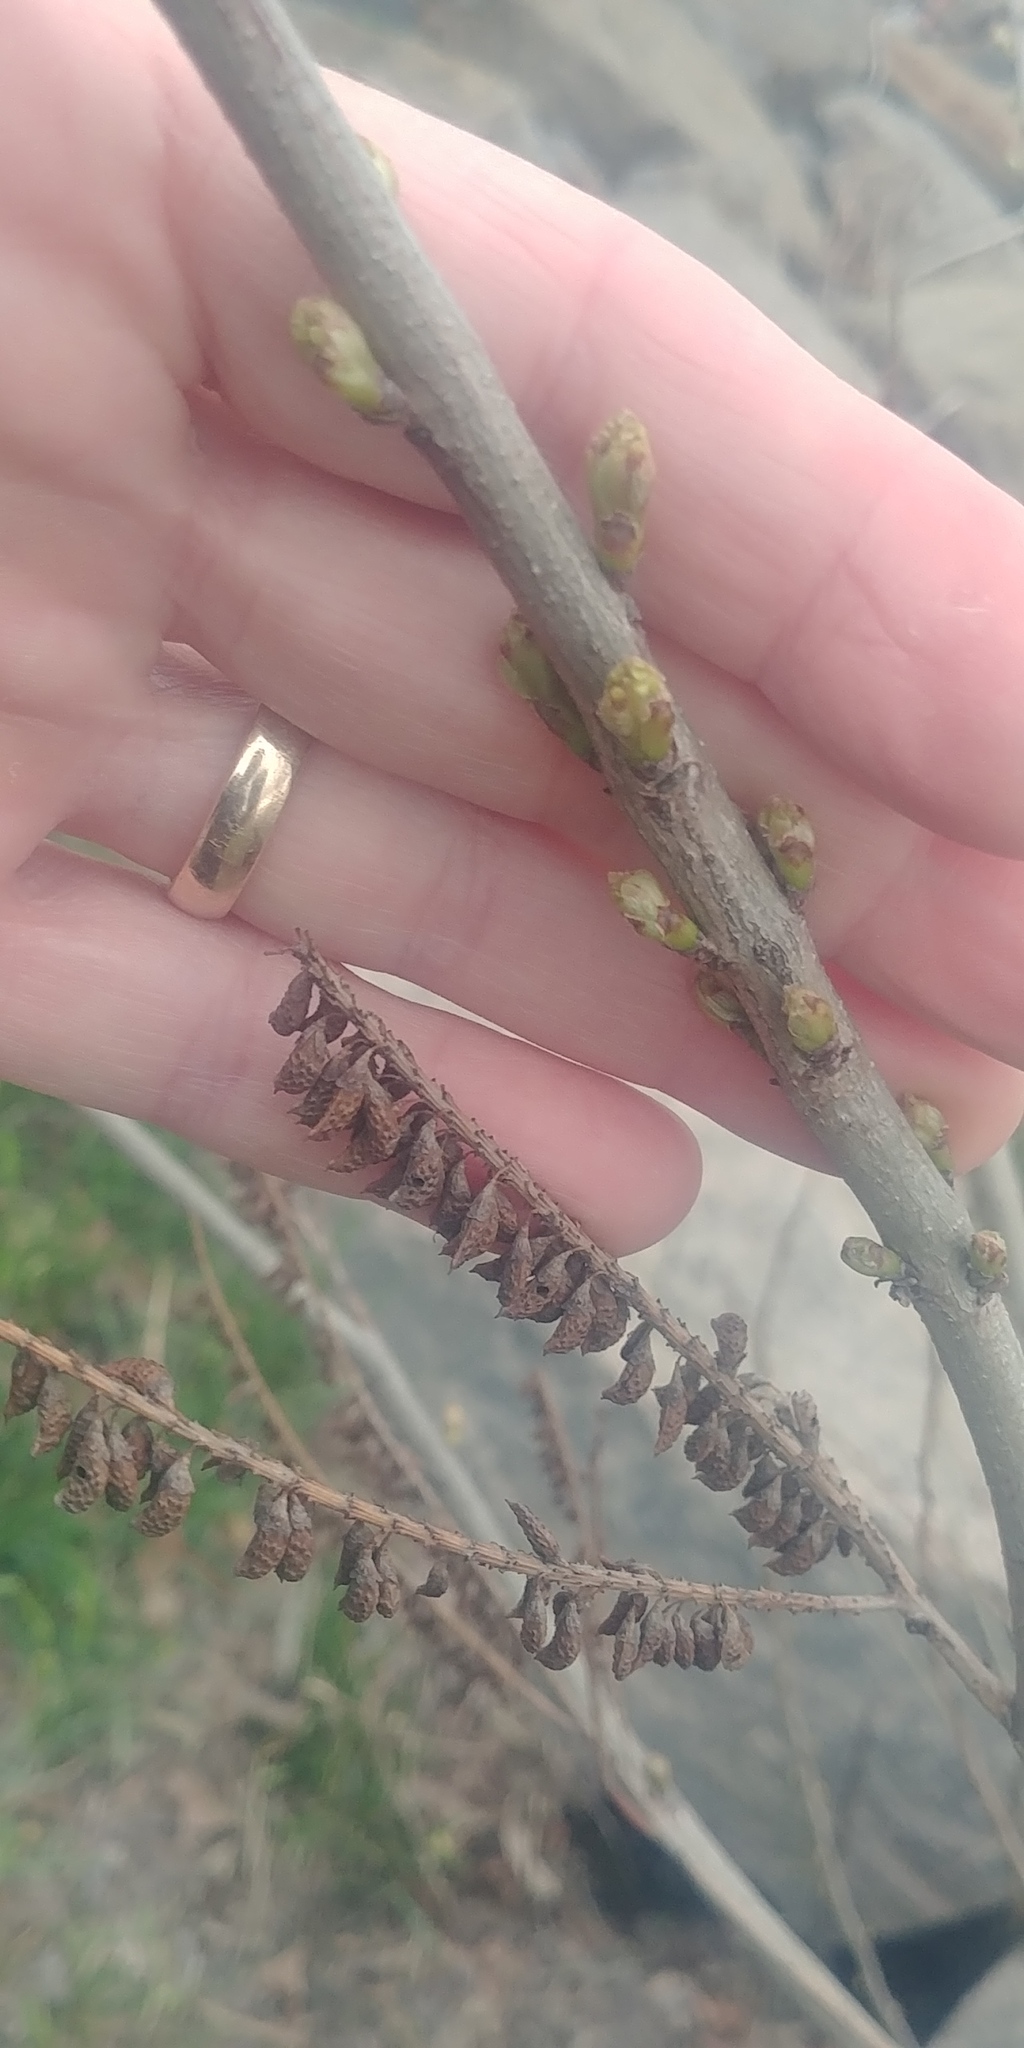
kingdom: Plantae
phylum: Tracheophyta
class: Magnoliopsida
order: Fabales
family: Fabaceae
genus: Amorpha
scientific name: Amorpha fruticosa
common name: False indigo
